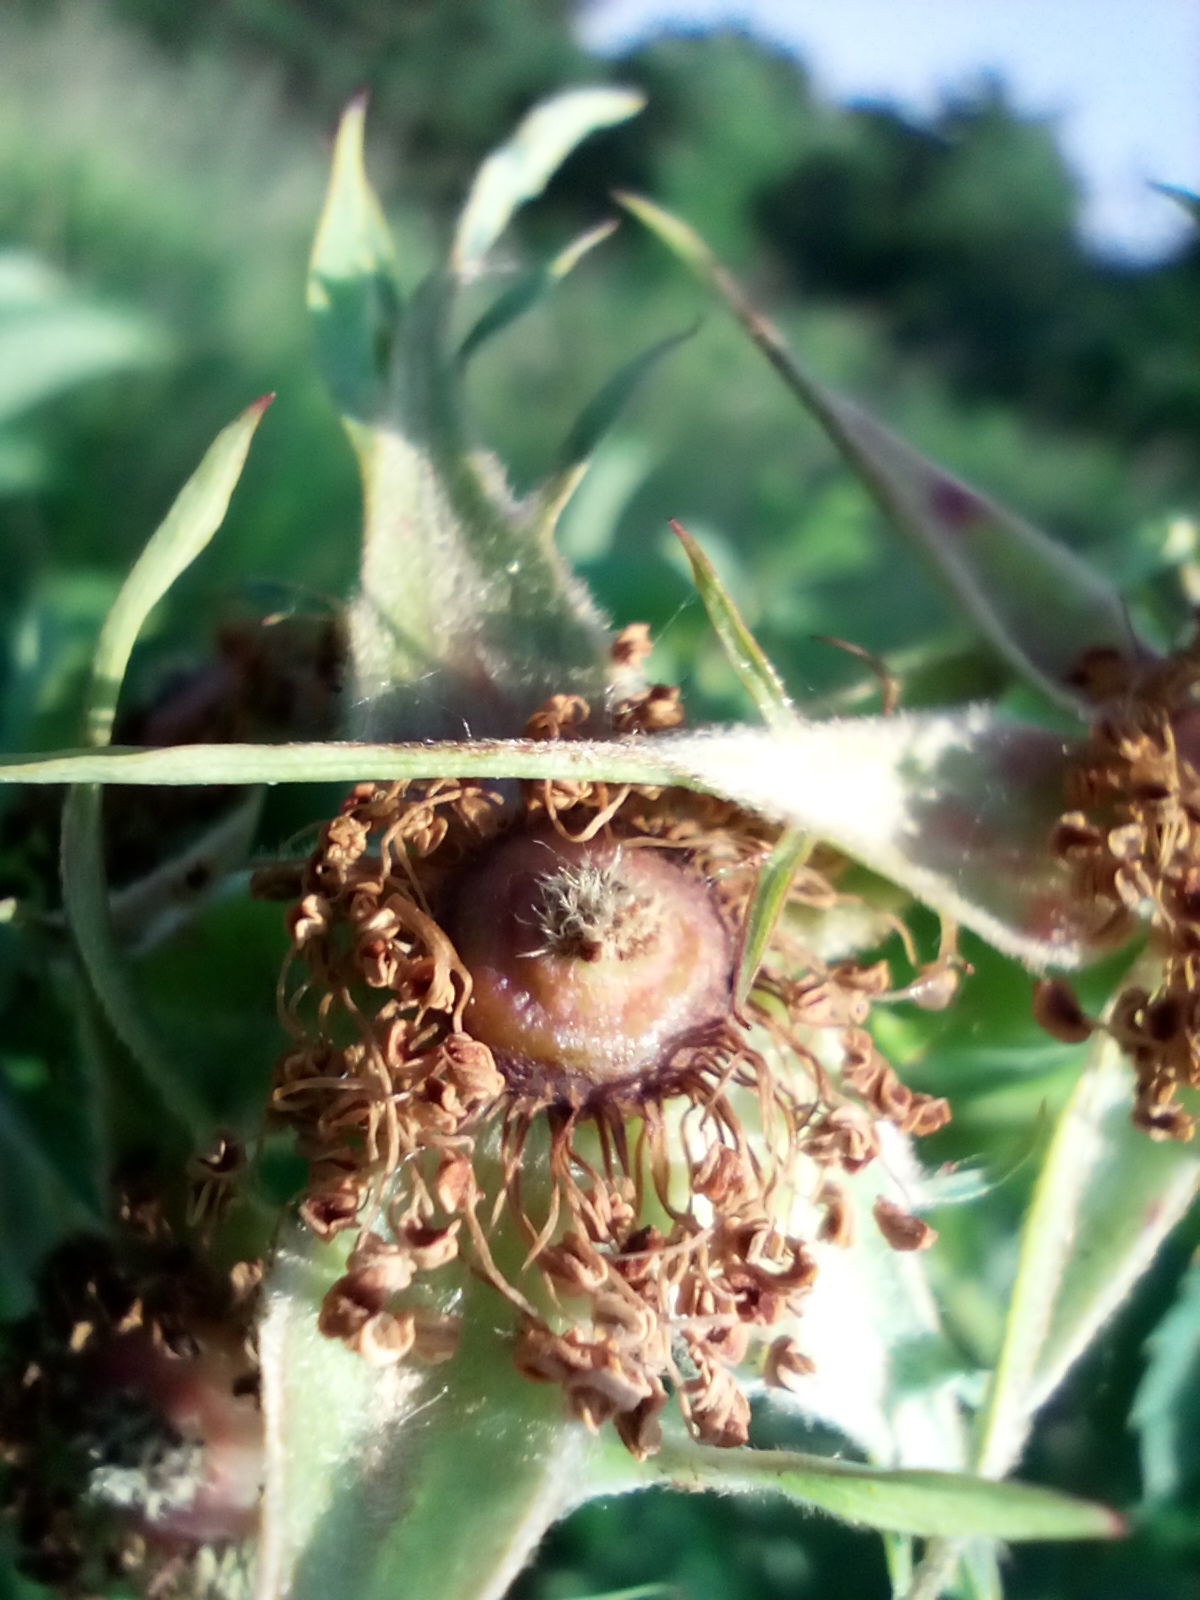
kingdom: Plantae
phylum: Tracheophyta
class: Magnoliopsida
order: Rosales
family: Rosaceae
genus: Rosa
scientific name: Rosa dumalis
